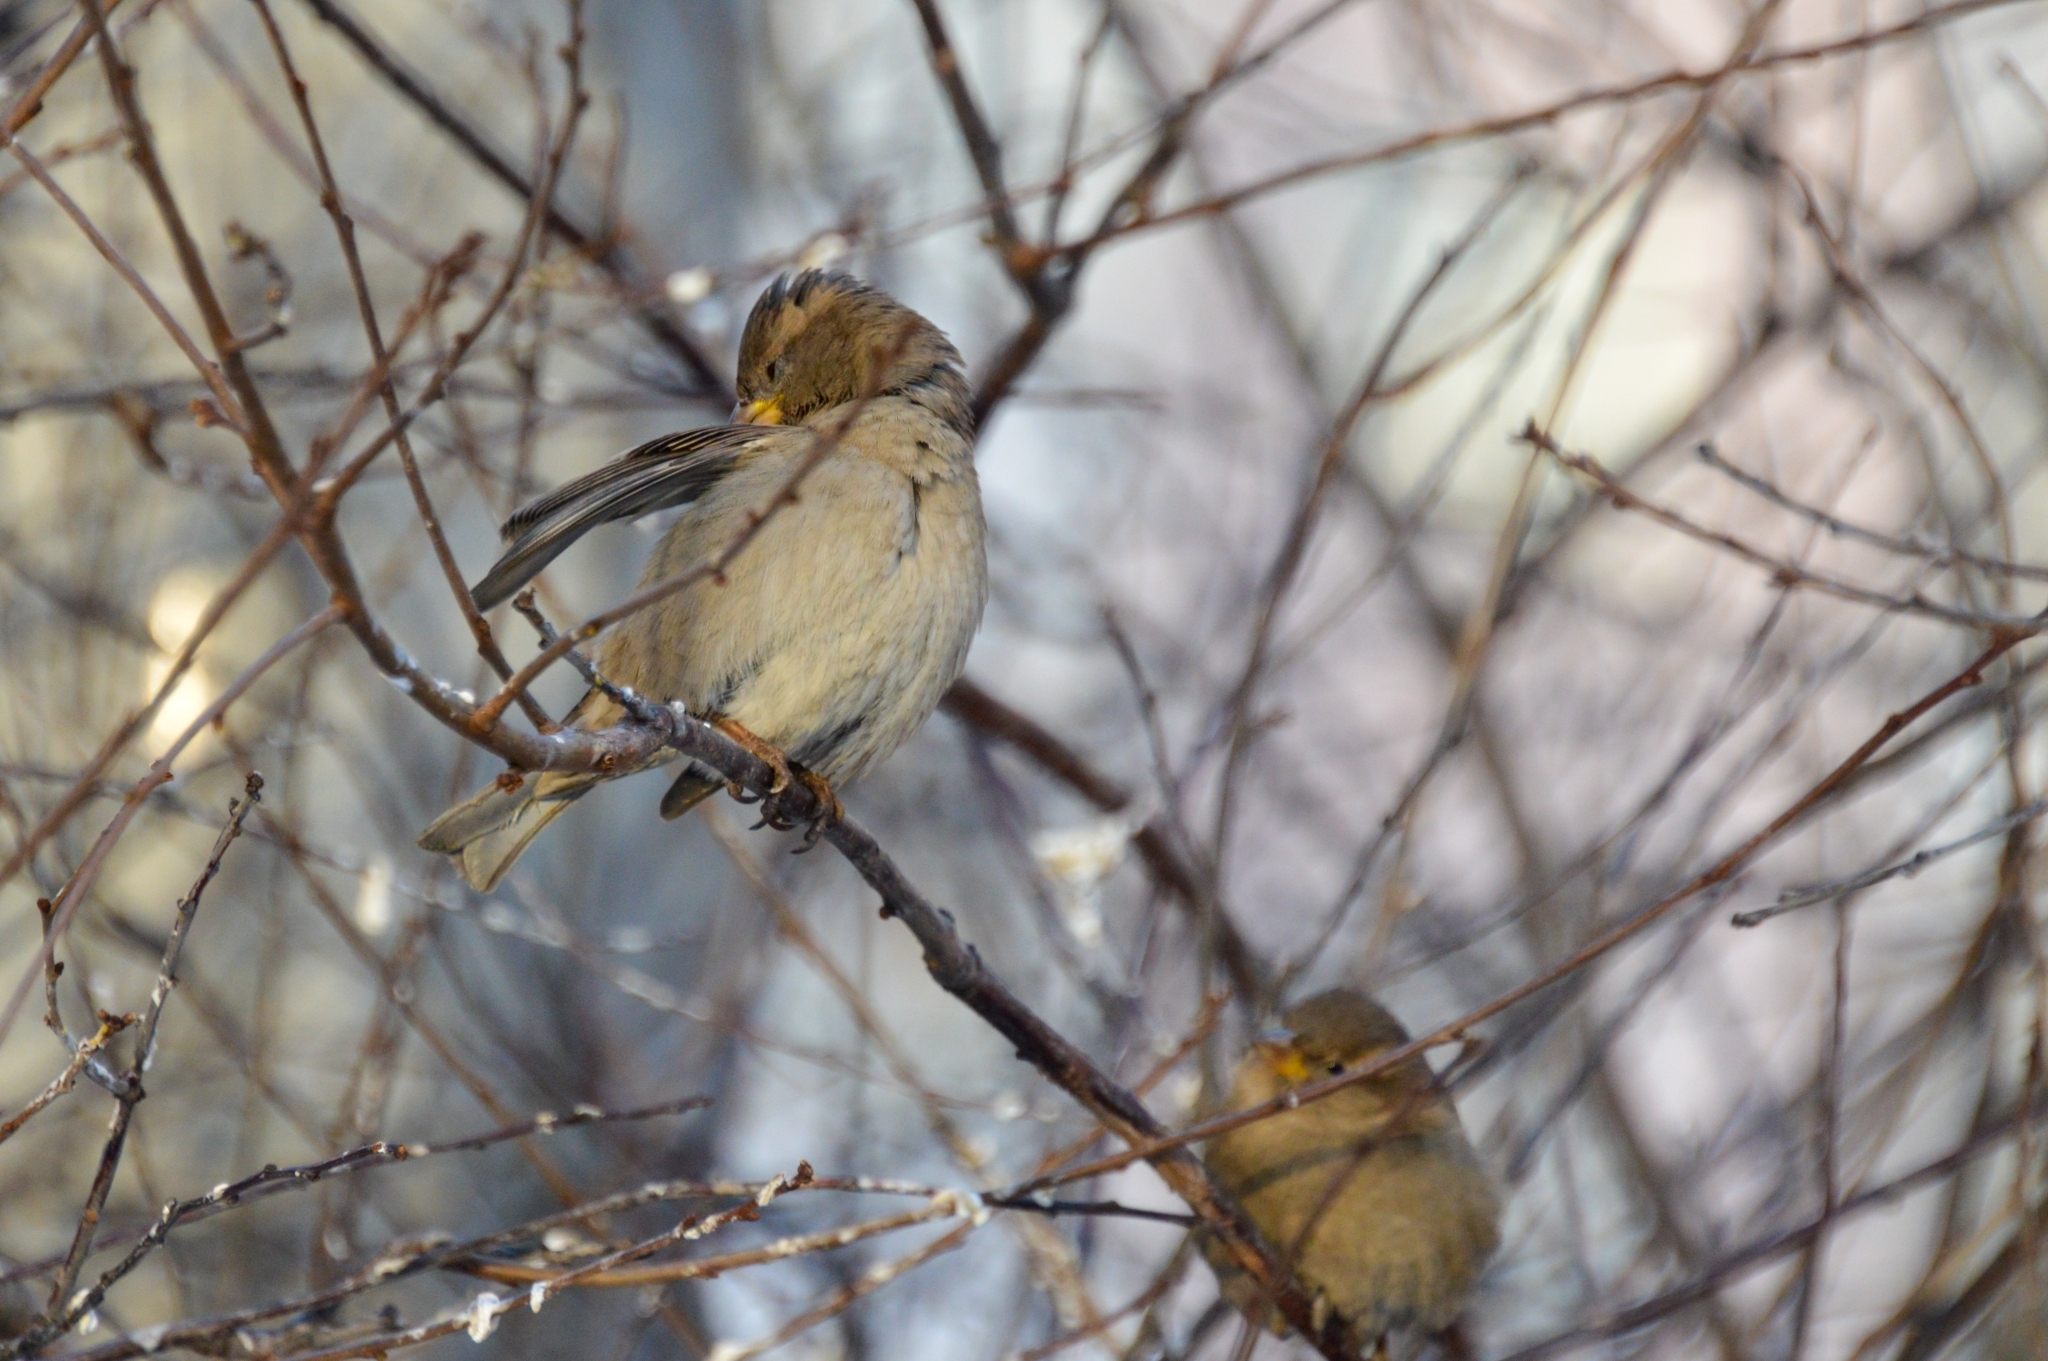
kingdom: Animalia
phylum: Chordata
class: Aves
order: Passeriformes
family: Passeridae
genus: Passer
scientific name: Passer domesticus
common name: House sparrow
